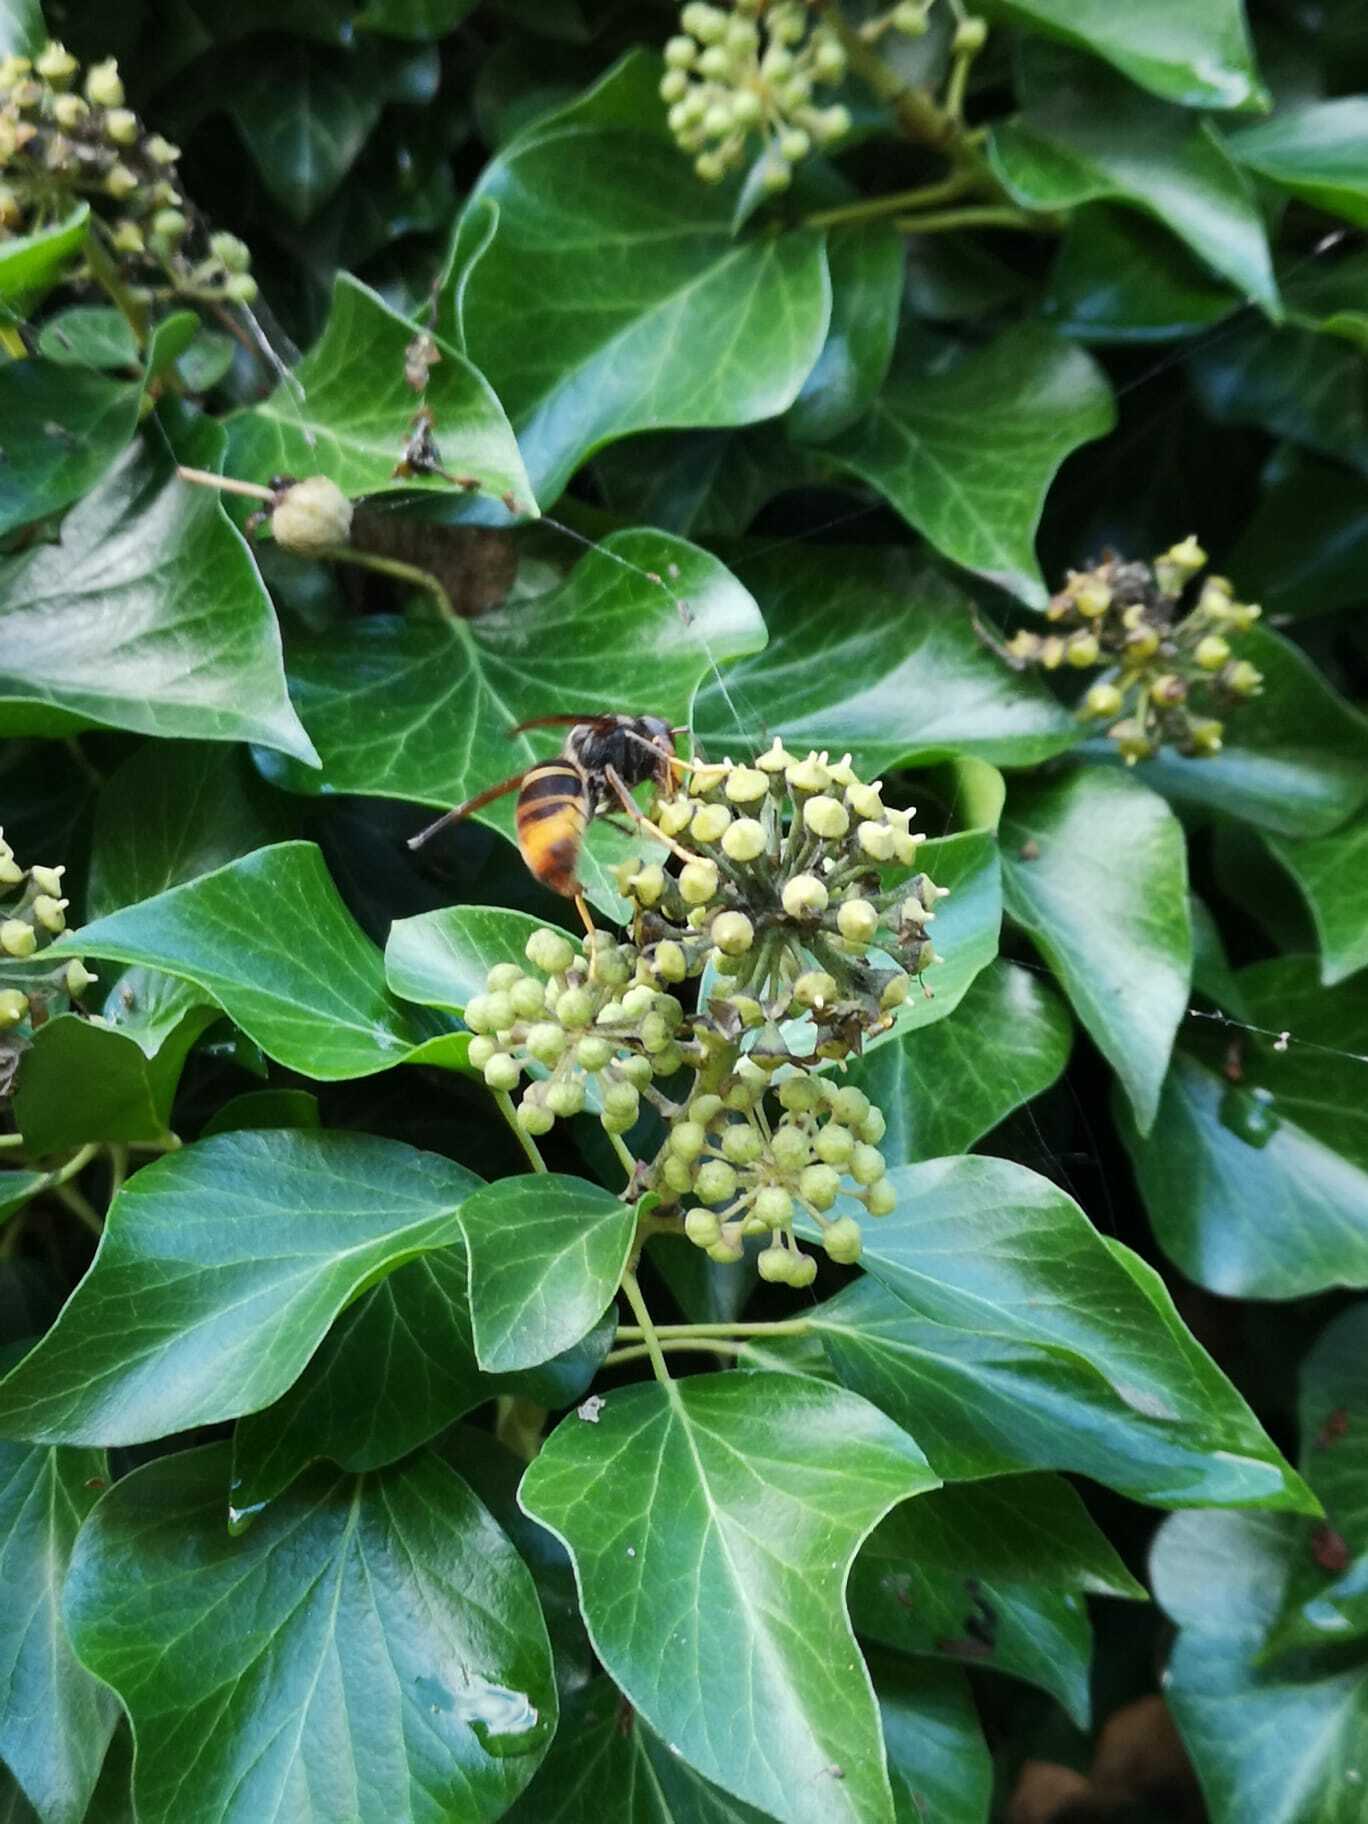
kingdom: Animalia
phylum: Arthropoda
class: Insecta
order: Hymenoptera
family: Vespidae
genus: Vespa
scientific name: Vespa velutina
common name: Asian hornet
